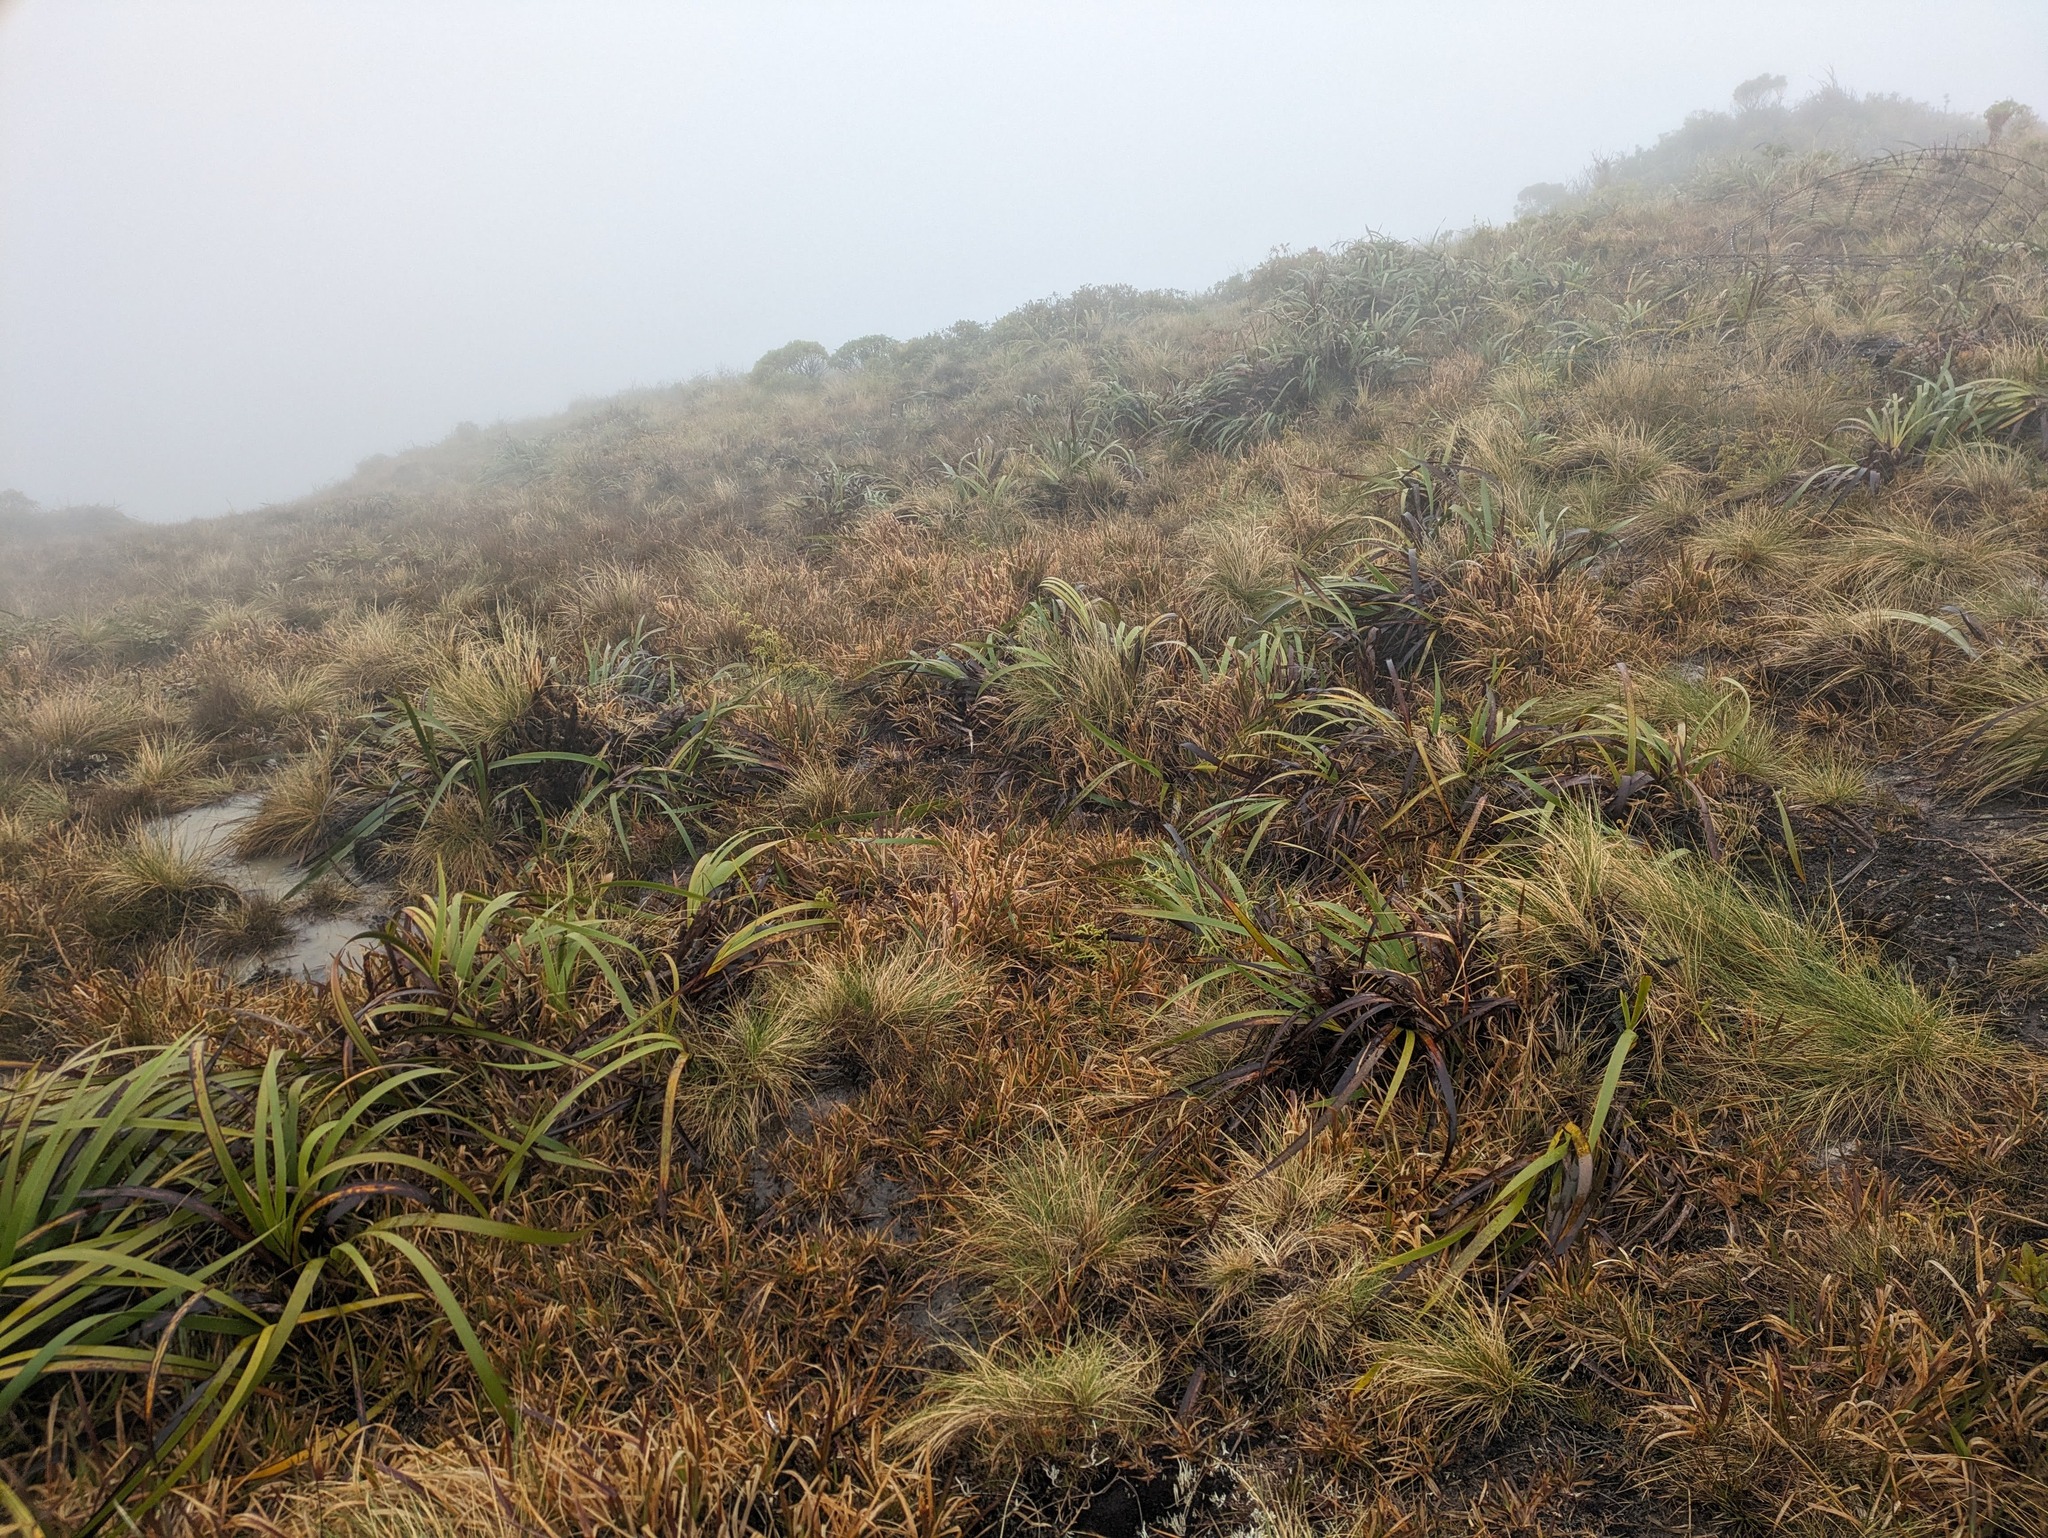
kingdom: Plantae
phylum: Tracheophyta
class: Liliopsida
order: Poales
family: Cyperaceae
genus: Machaerina
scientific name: Machaerina angustifolia
